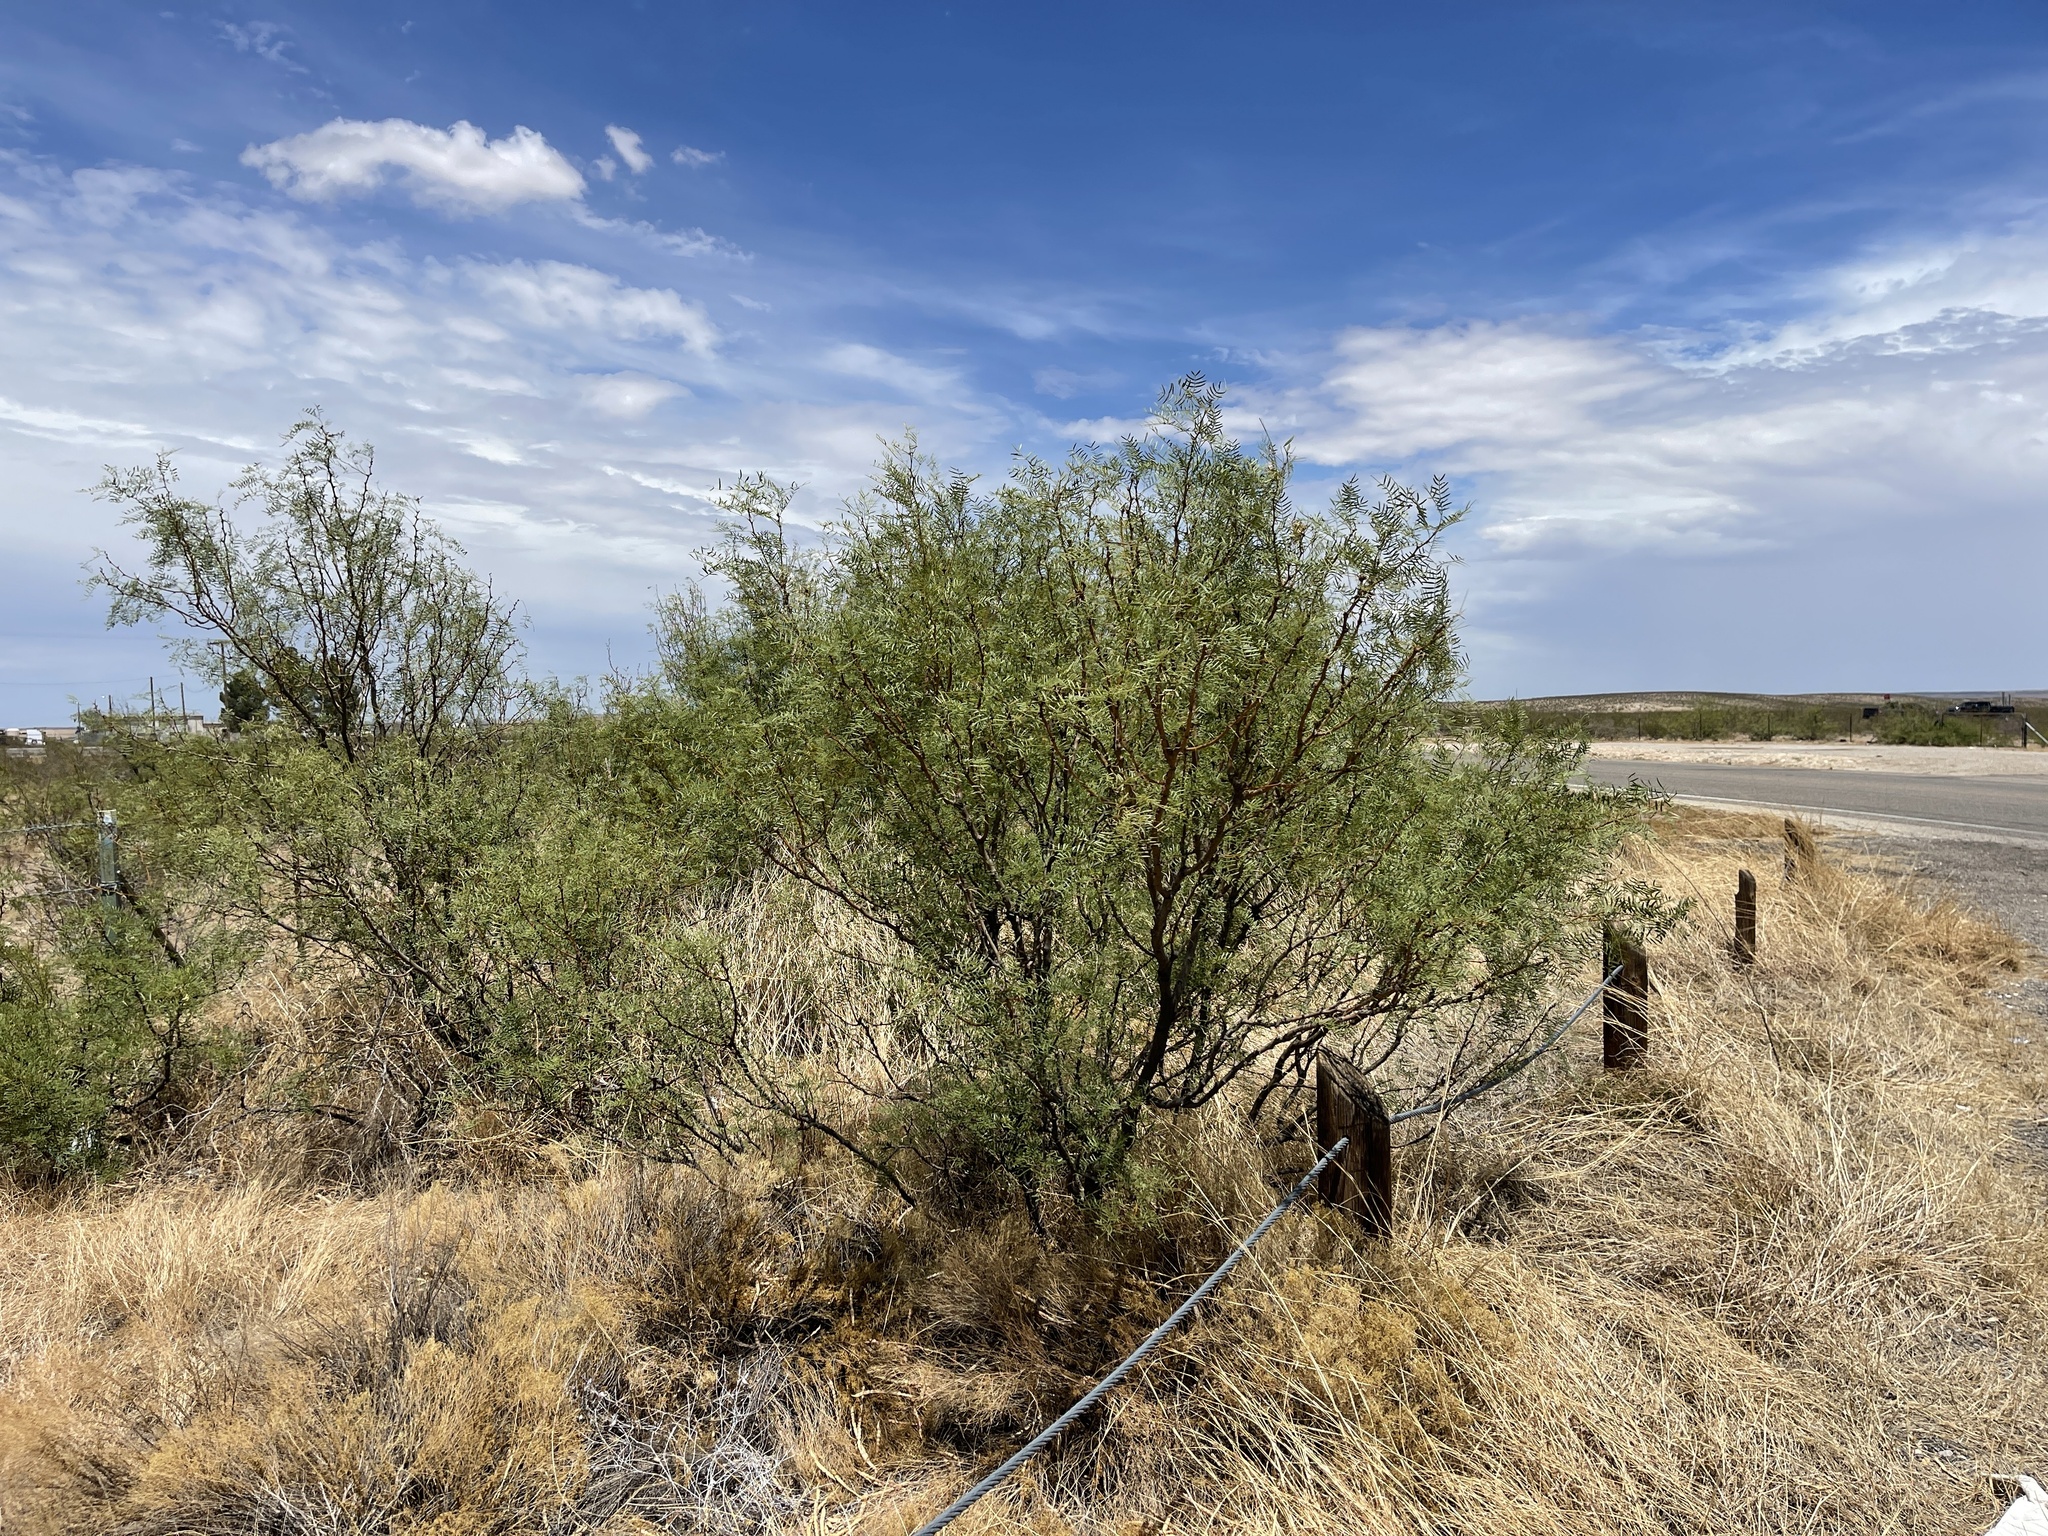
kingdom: Plantae
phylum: Tracheophyta
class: Magnoliopsida
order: Fabales
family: Fabaceae
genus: Prosopis
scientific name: Prosopis glandulosa
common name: Honey mesquite
